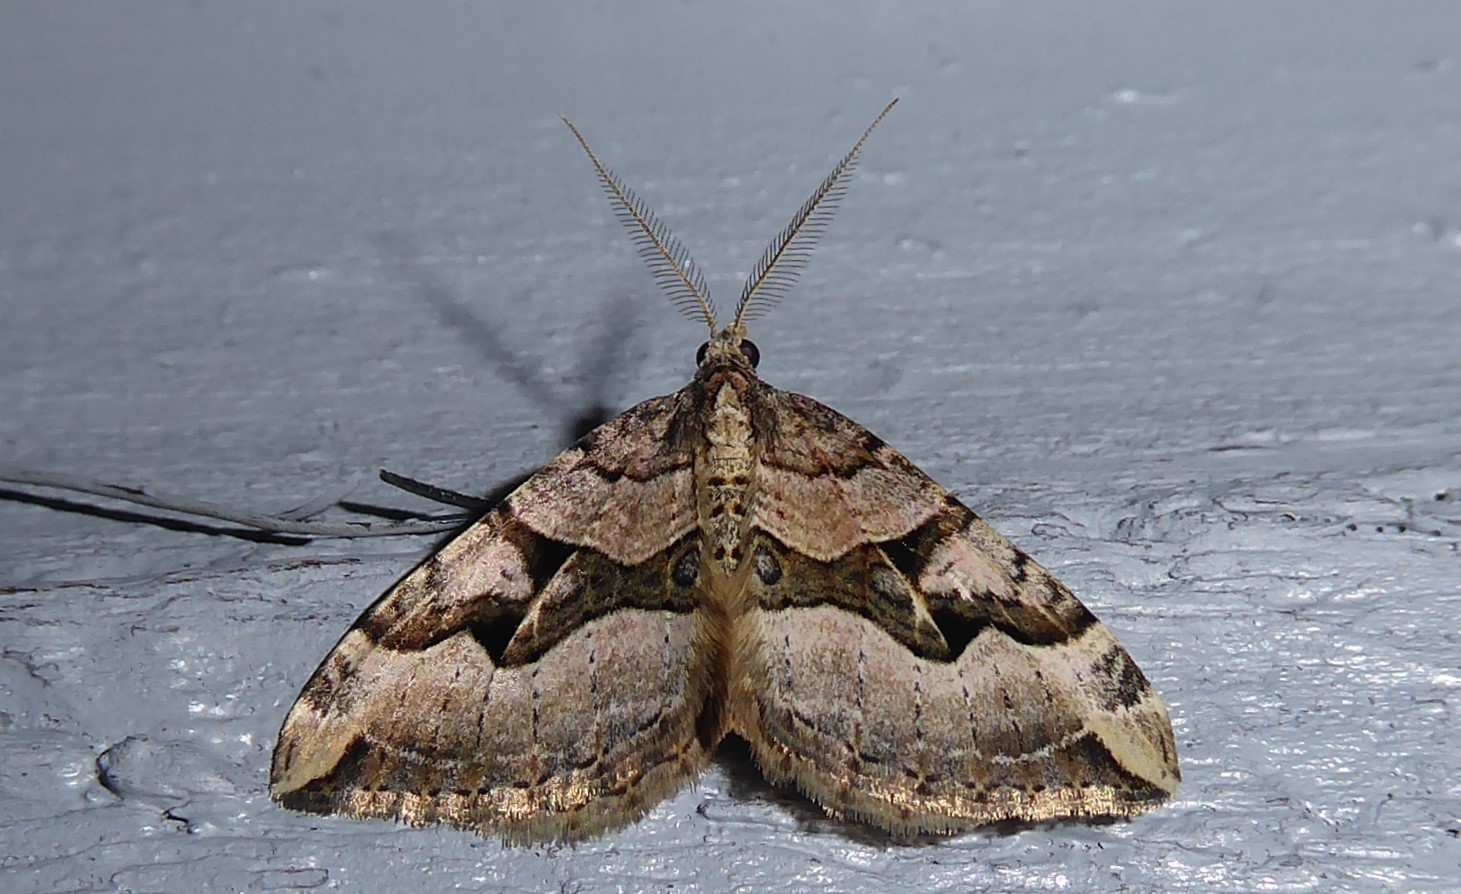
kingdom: Animalia
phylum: Arthropoda
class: Insecta
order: Lepidoptera
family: Geometridae
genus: Xanthorhoe
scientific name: Xanthorhoe semifissata
